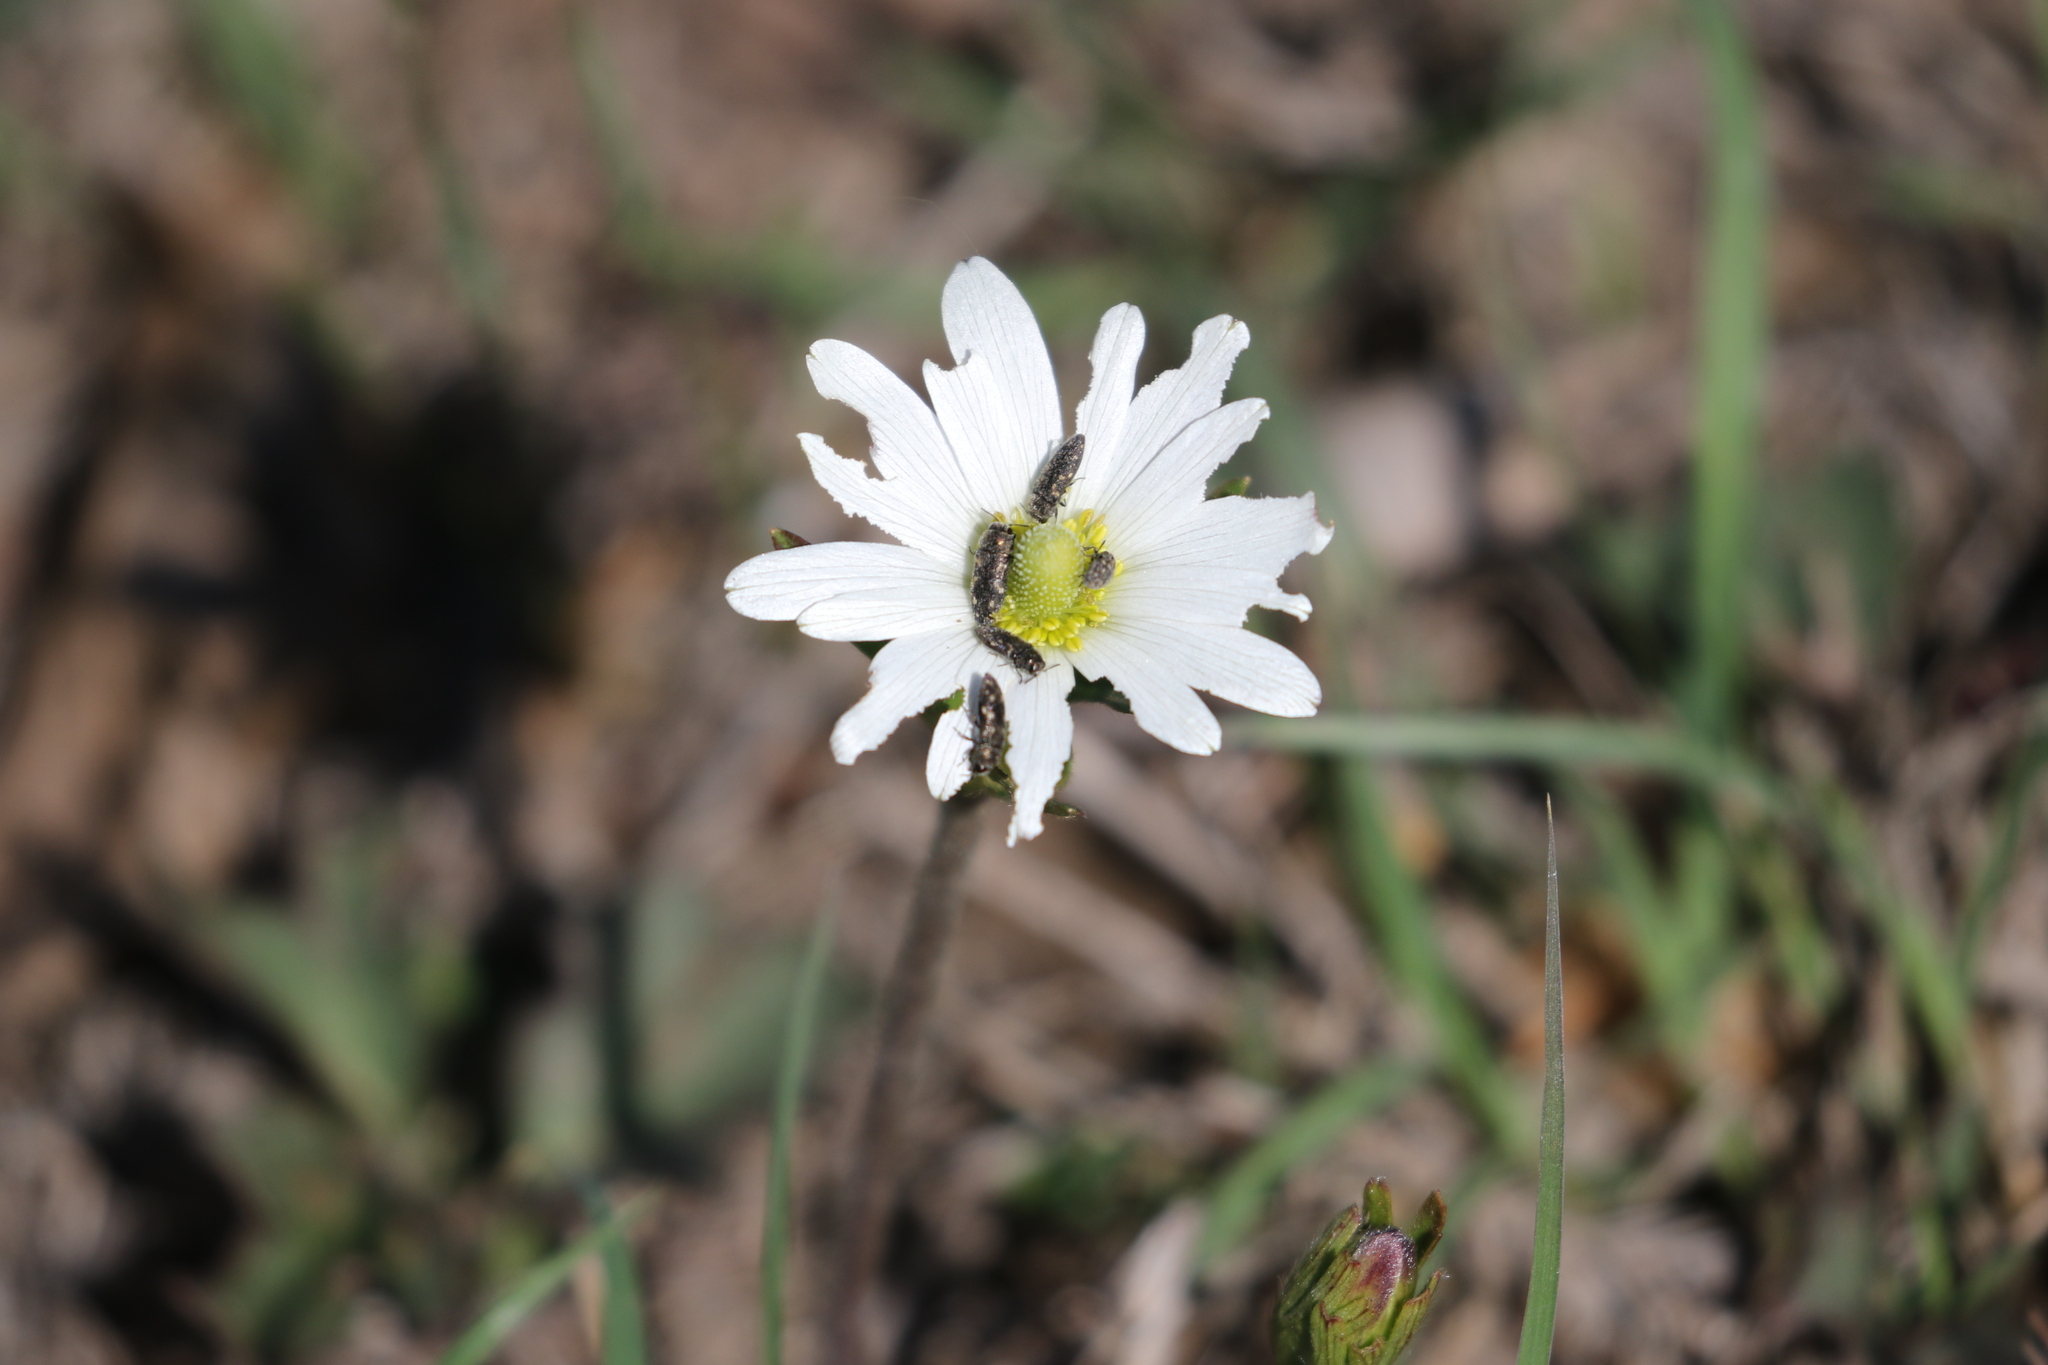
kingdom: Plantae
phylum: Tracheophyta
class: Magnoliopsida
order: Ranunculales
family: Ranunculaceae
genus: Anemone
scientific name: Anemone berlandieri
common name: Ten-petal anemone
